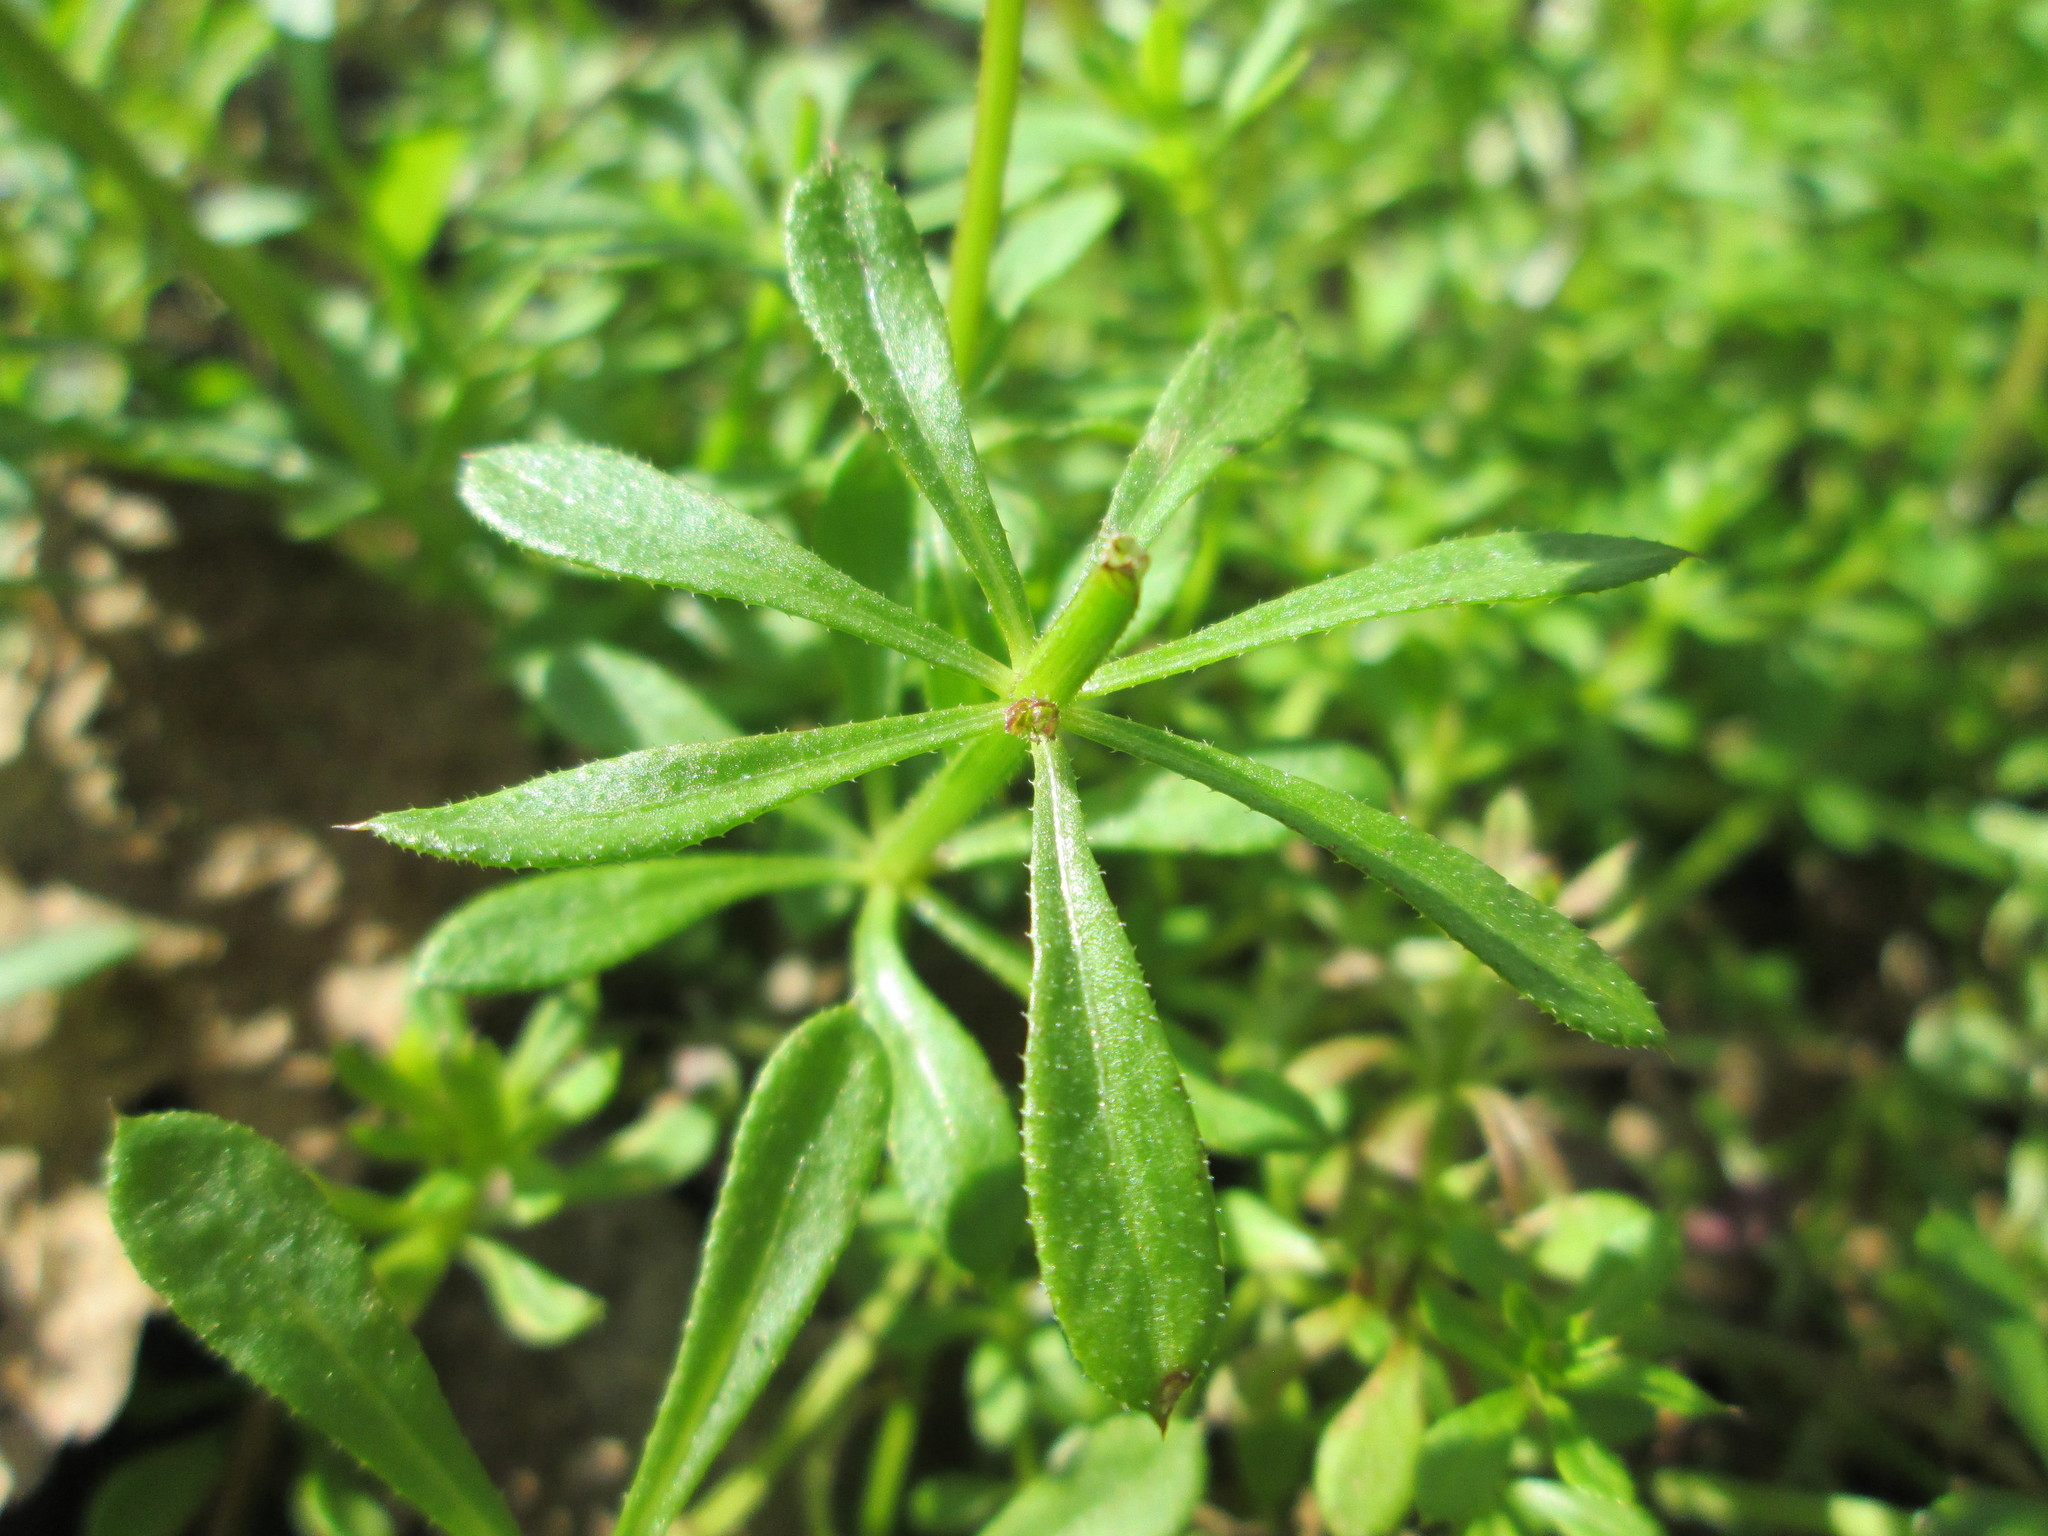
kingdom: Plantae
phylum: Tracheophyta
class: Magnoliopsida
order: Gentianales
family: Rubiaceae
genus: Galium
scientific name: Galium aparine
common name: Cleavers
